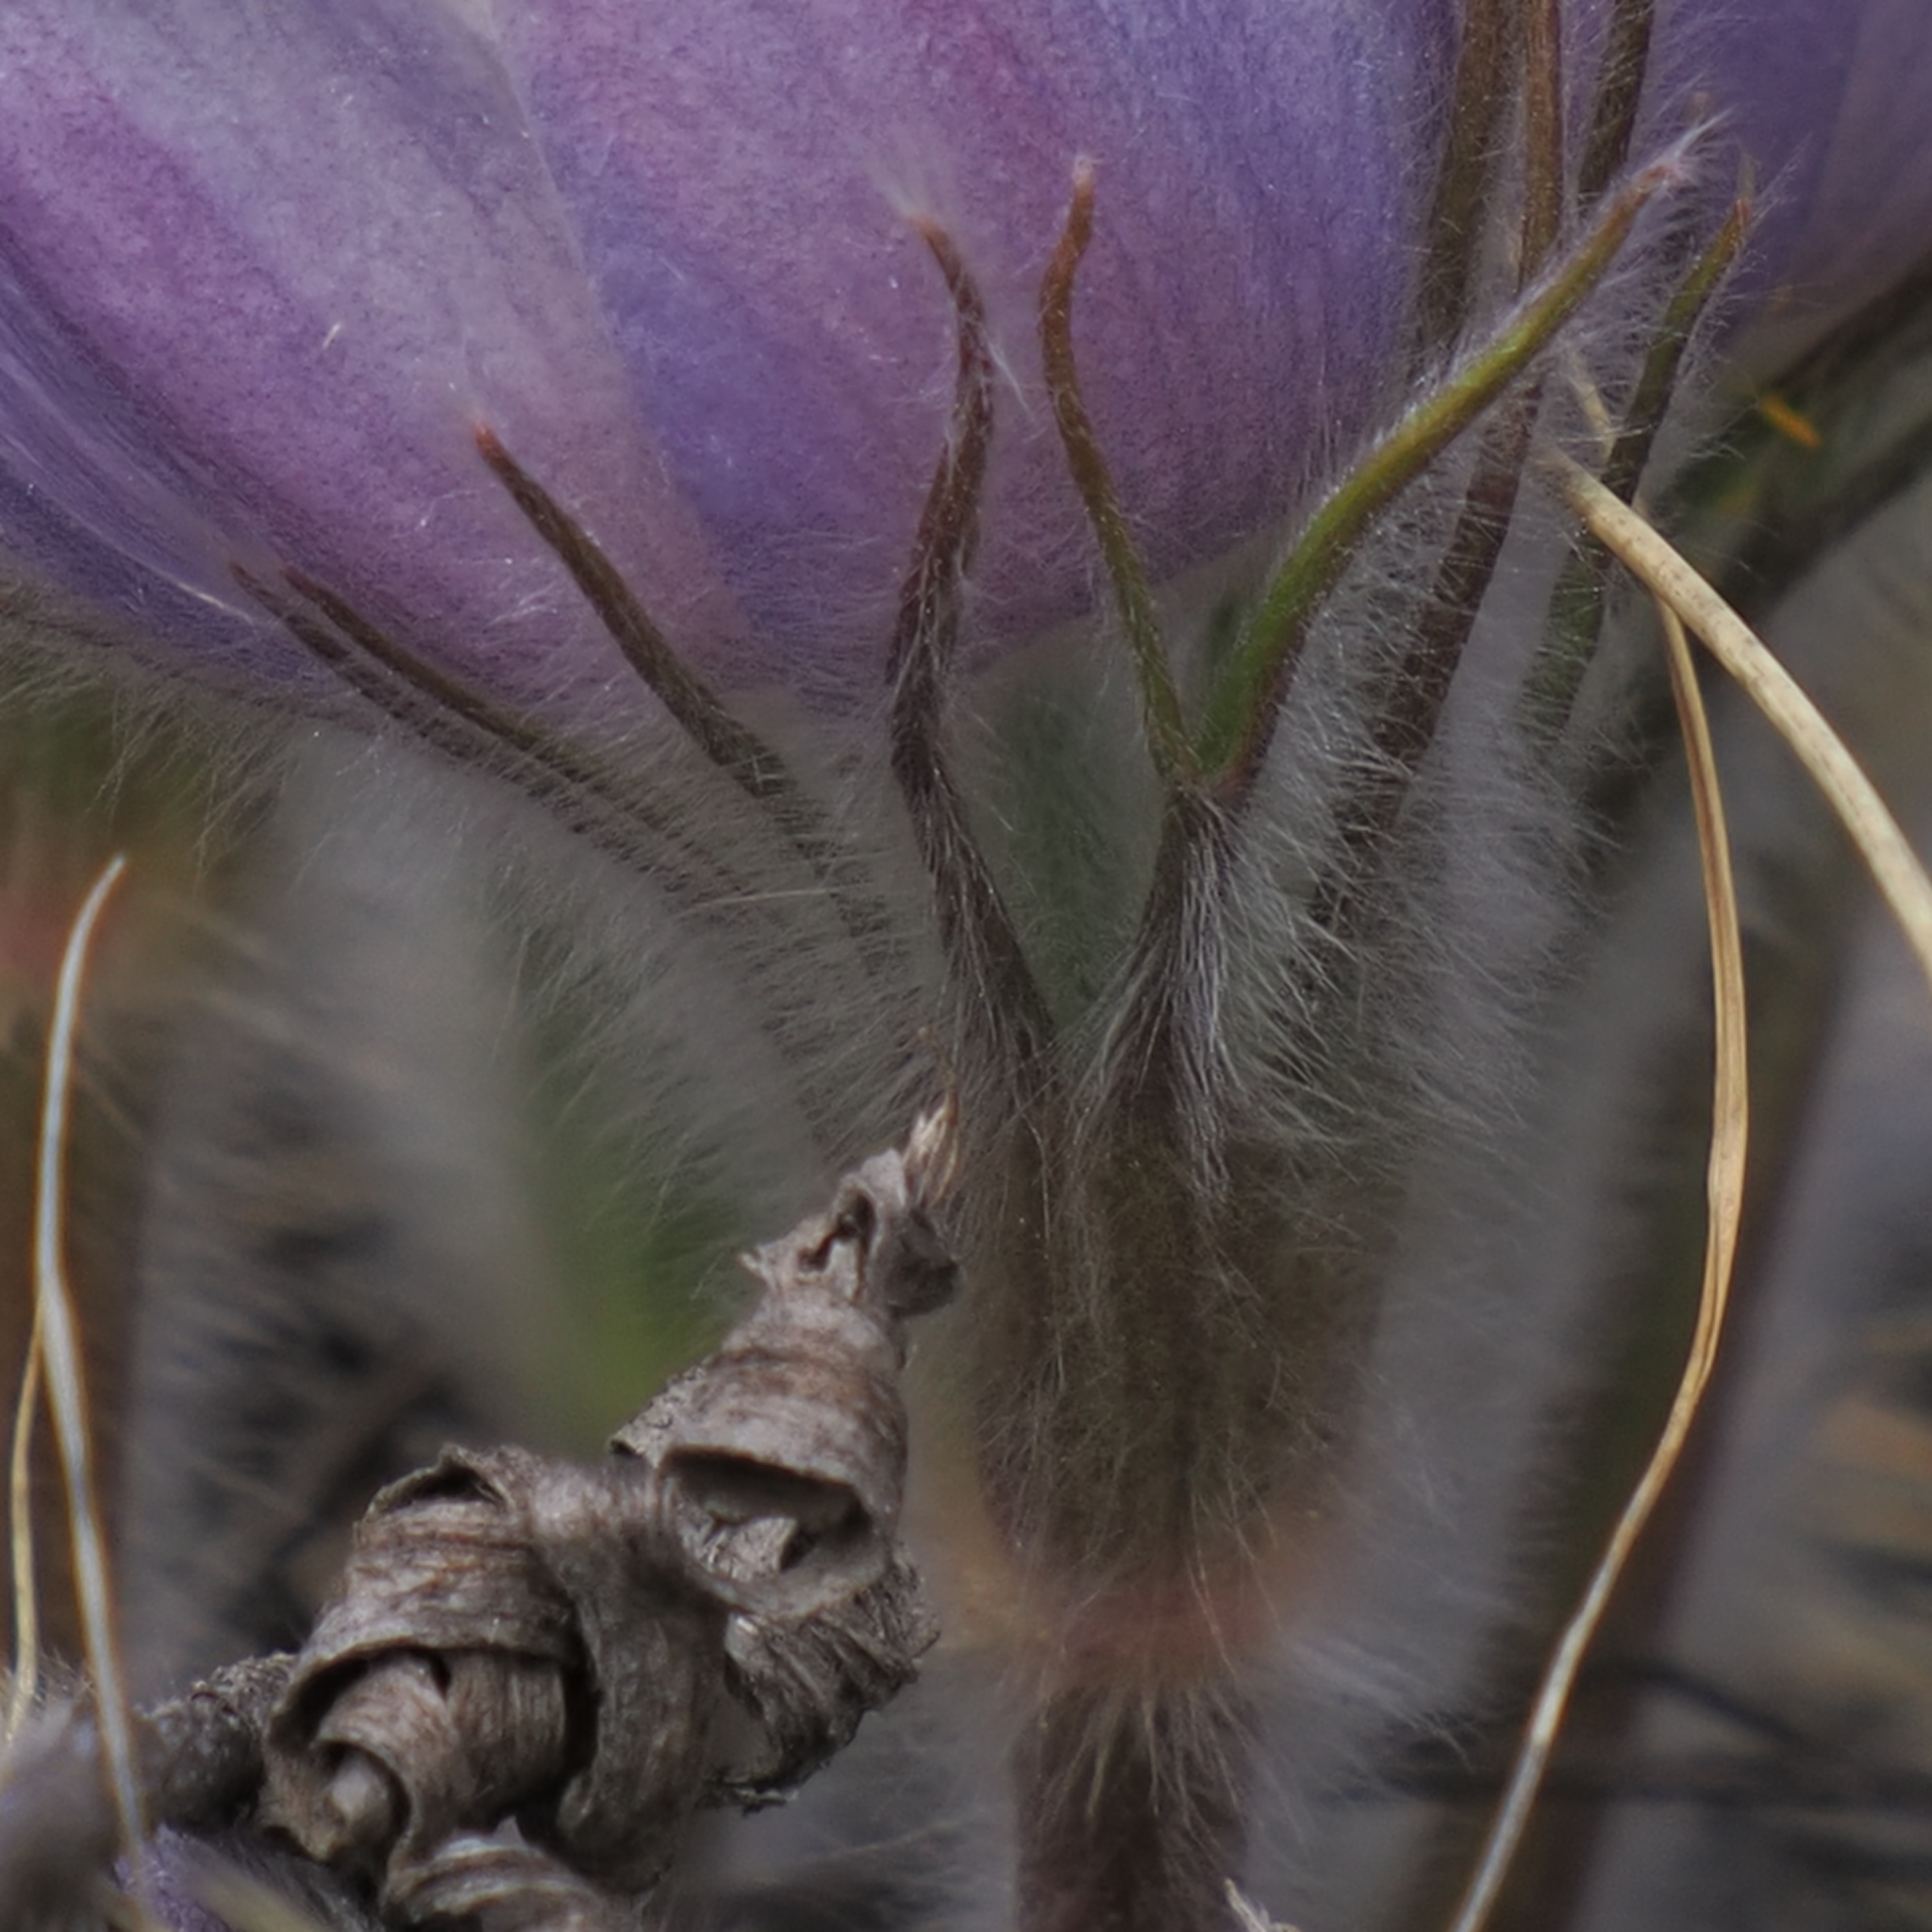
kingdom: Plantae
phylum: Tracheophyta
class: Magnoliopsida
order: Ranunculales
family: Ranunculaceae
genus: Pulsatilla
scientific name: Pulsatilla nuttalliana
